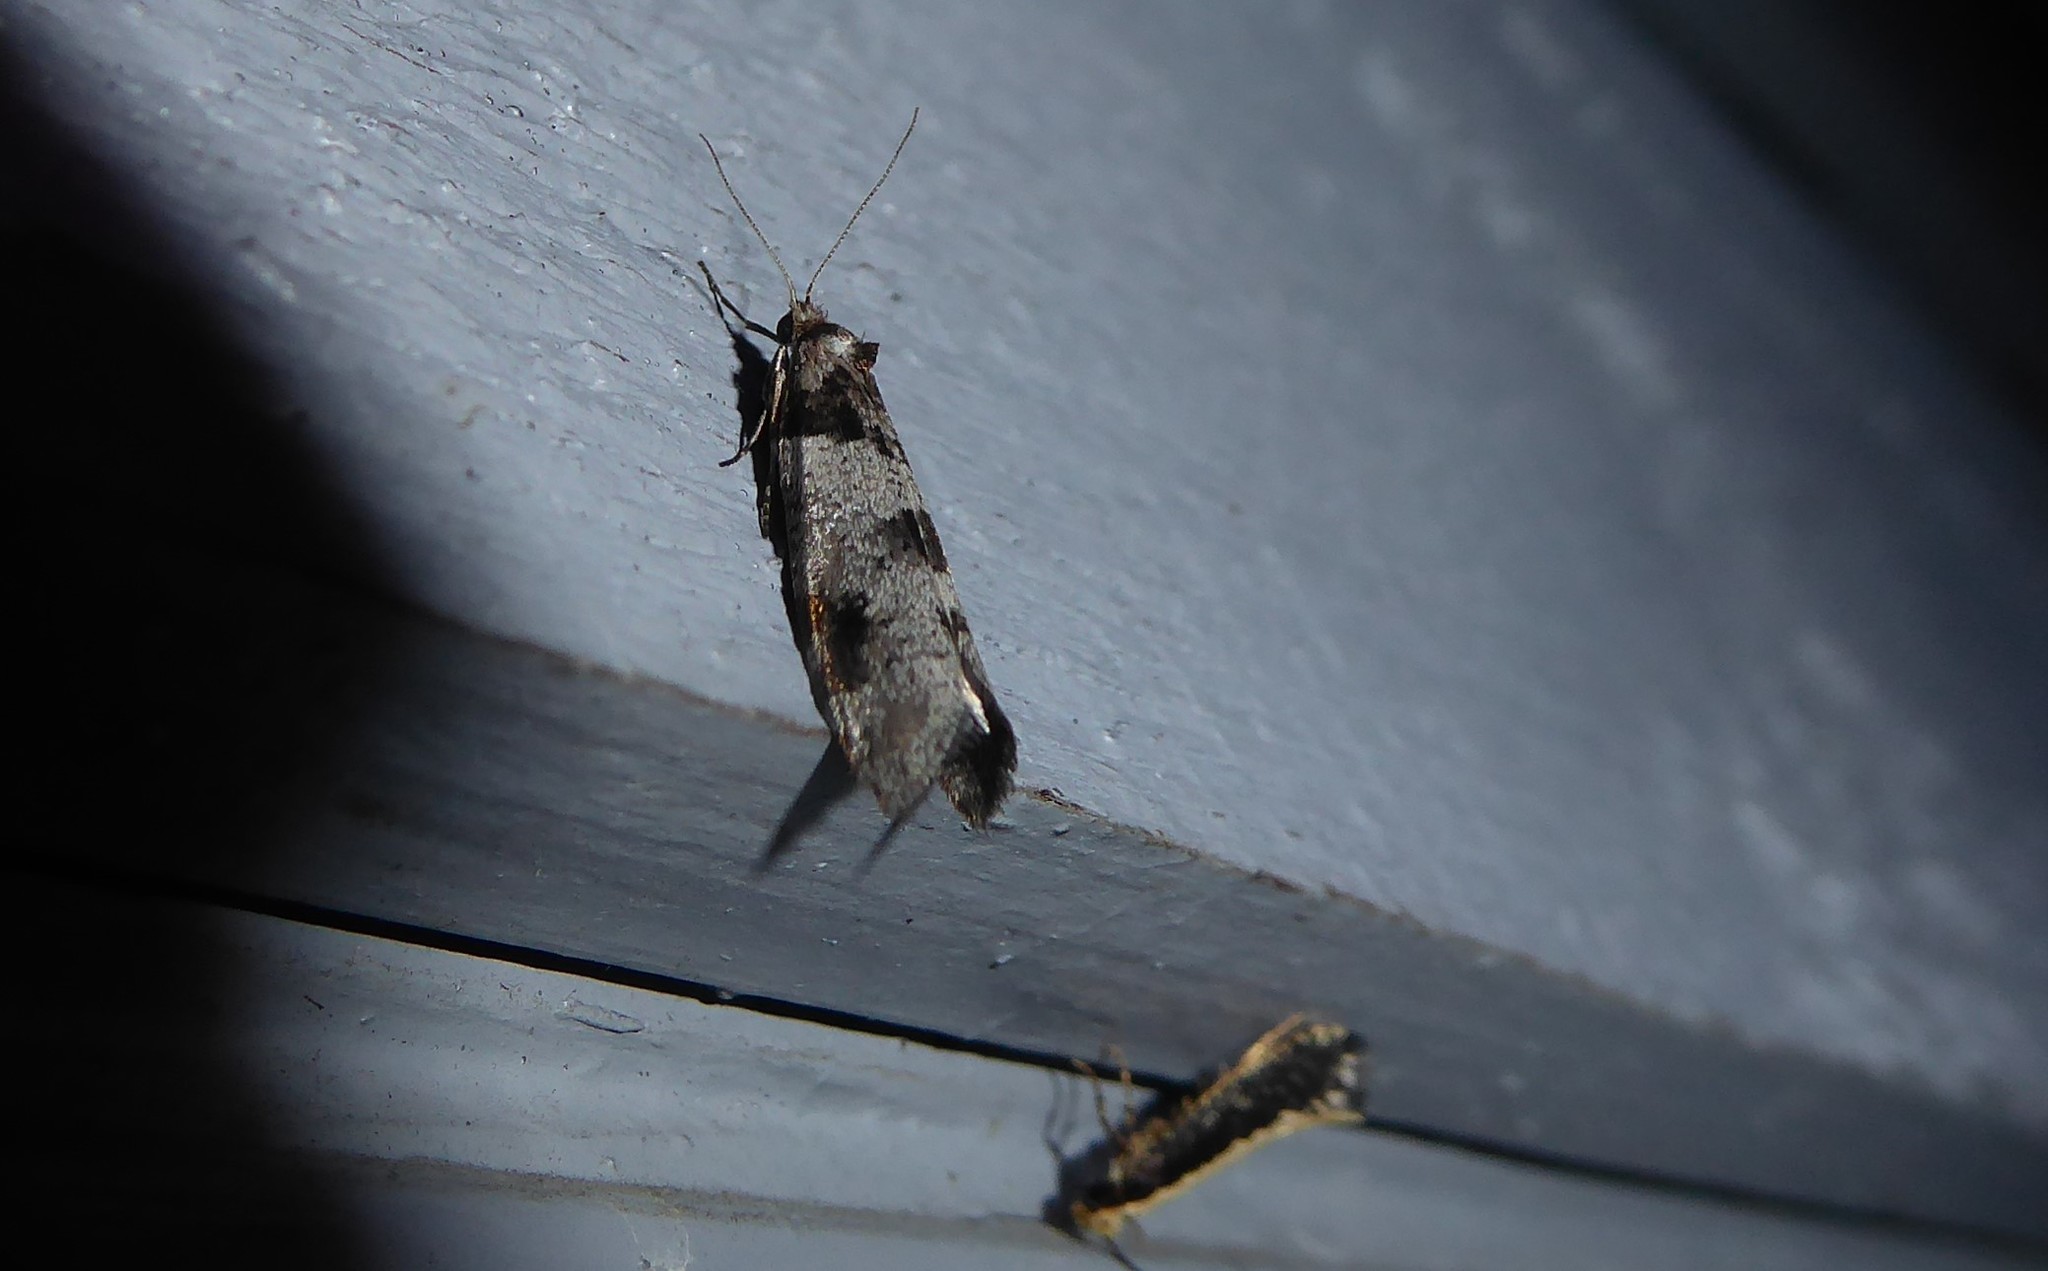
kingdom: Animalia
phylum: Arthropoda
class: Insecta
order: Lepidoptera
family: Psychidae
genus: Lepidoscia
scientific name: Lepidoscia heliochares
